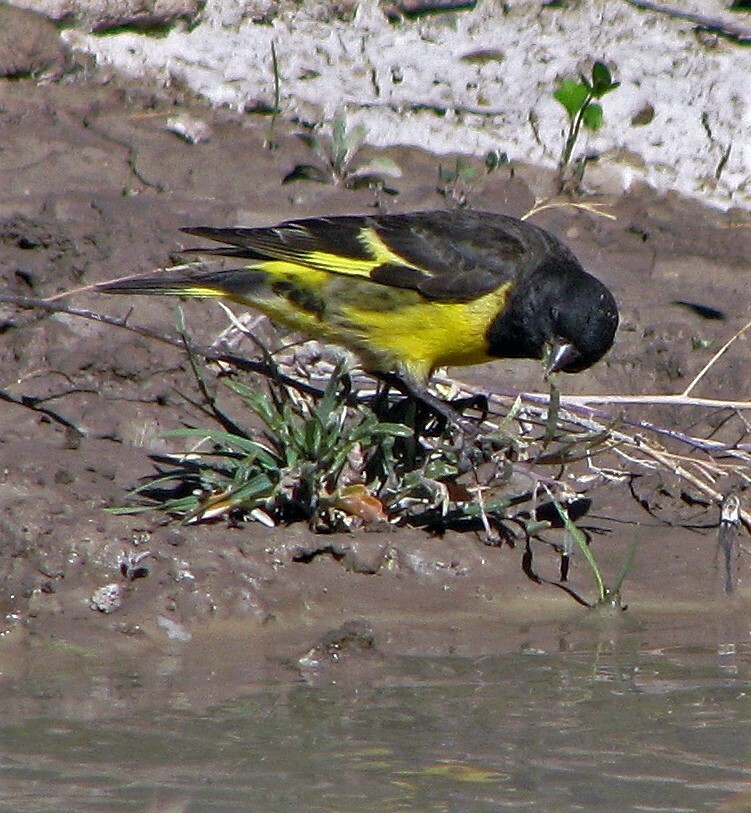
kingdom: Animalia
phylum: Chordata
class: Aves
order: Passeriformes
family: Fringillidae
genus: Spinus
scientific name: Spinus uropygialis
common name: Yellow-rumped siskin
